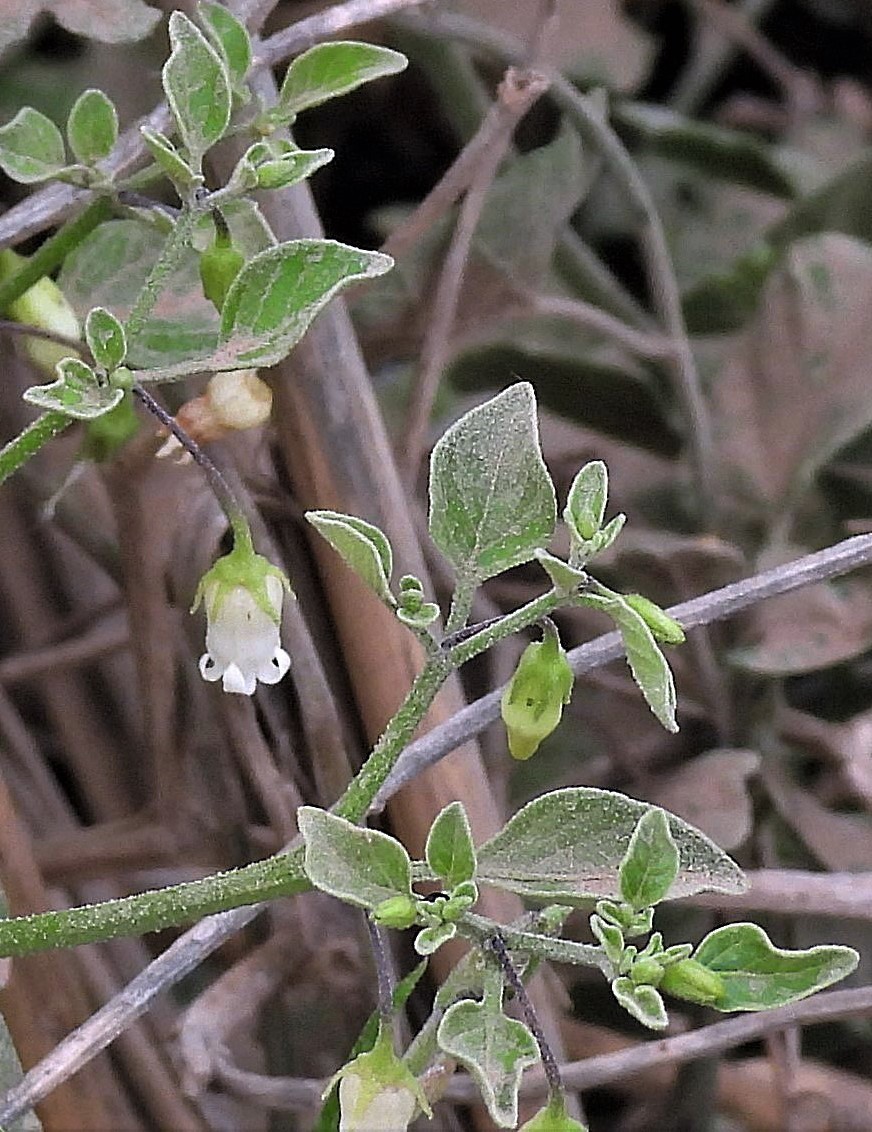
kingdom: Plantae
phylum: Tracheophyta
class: Magnoliopsida
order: Solanales
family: Solanaceae
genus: Salpichroa
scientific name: Salpichroa origanifolia
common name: Lily-of-the-valley-vine
